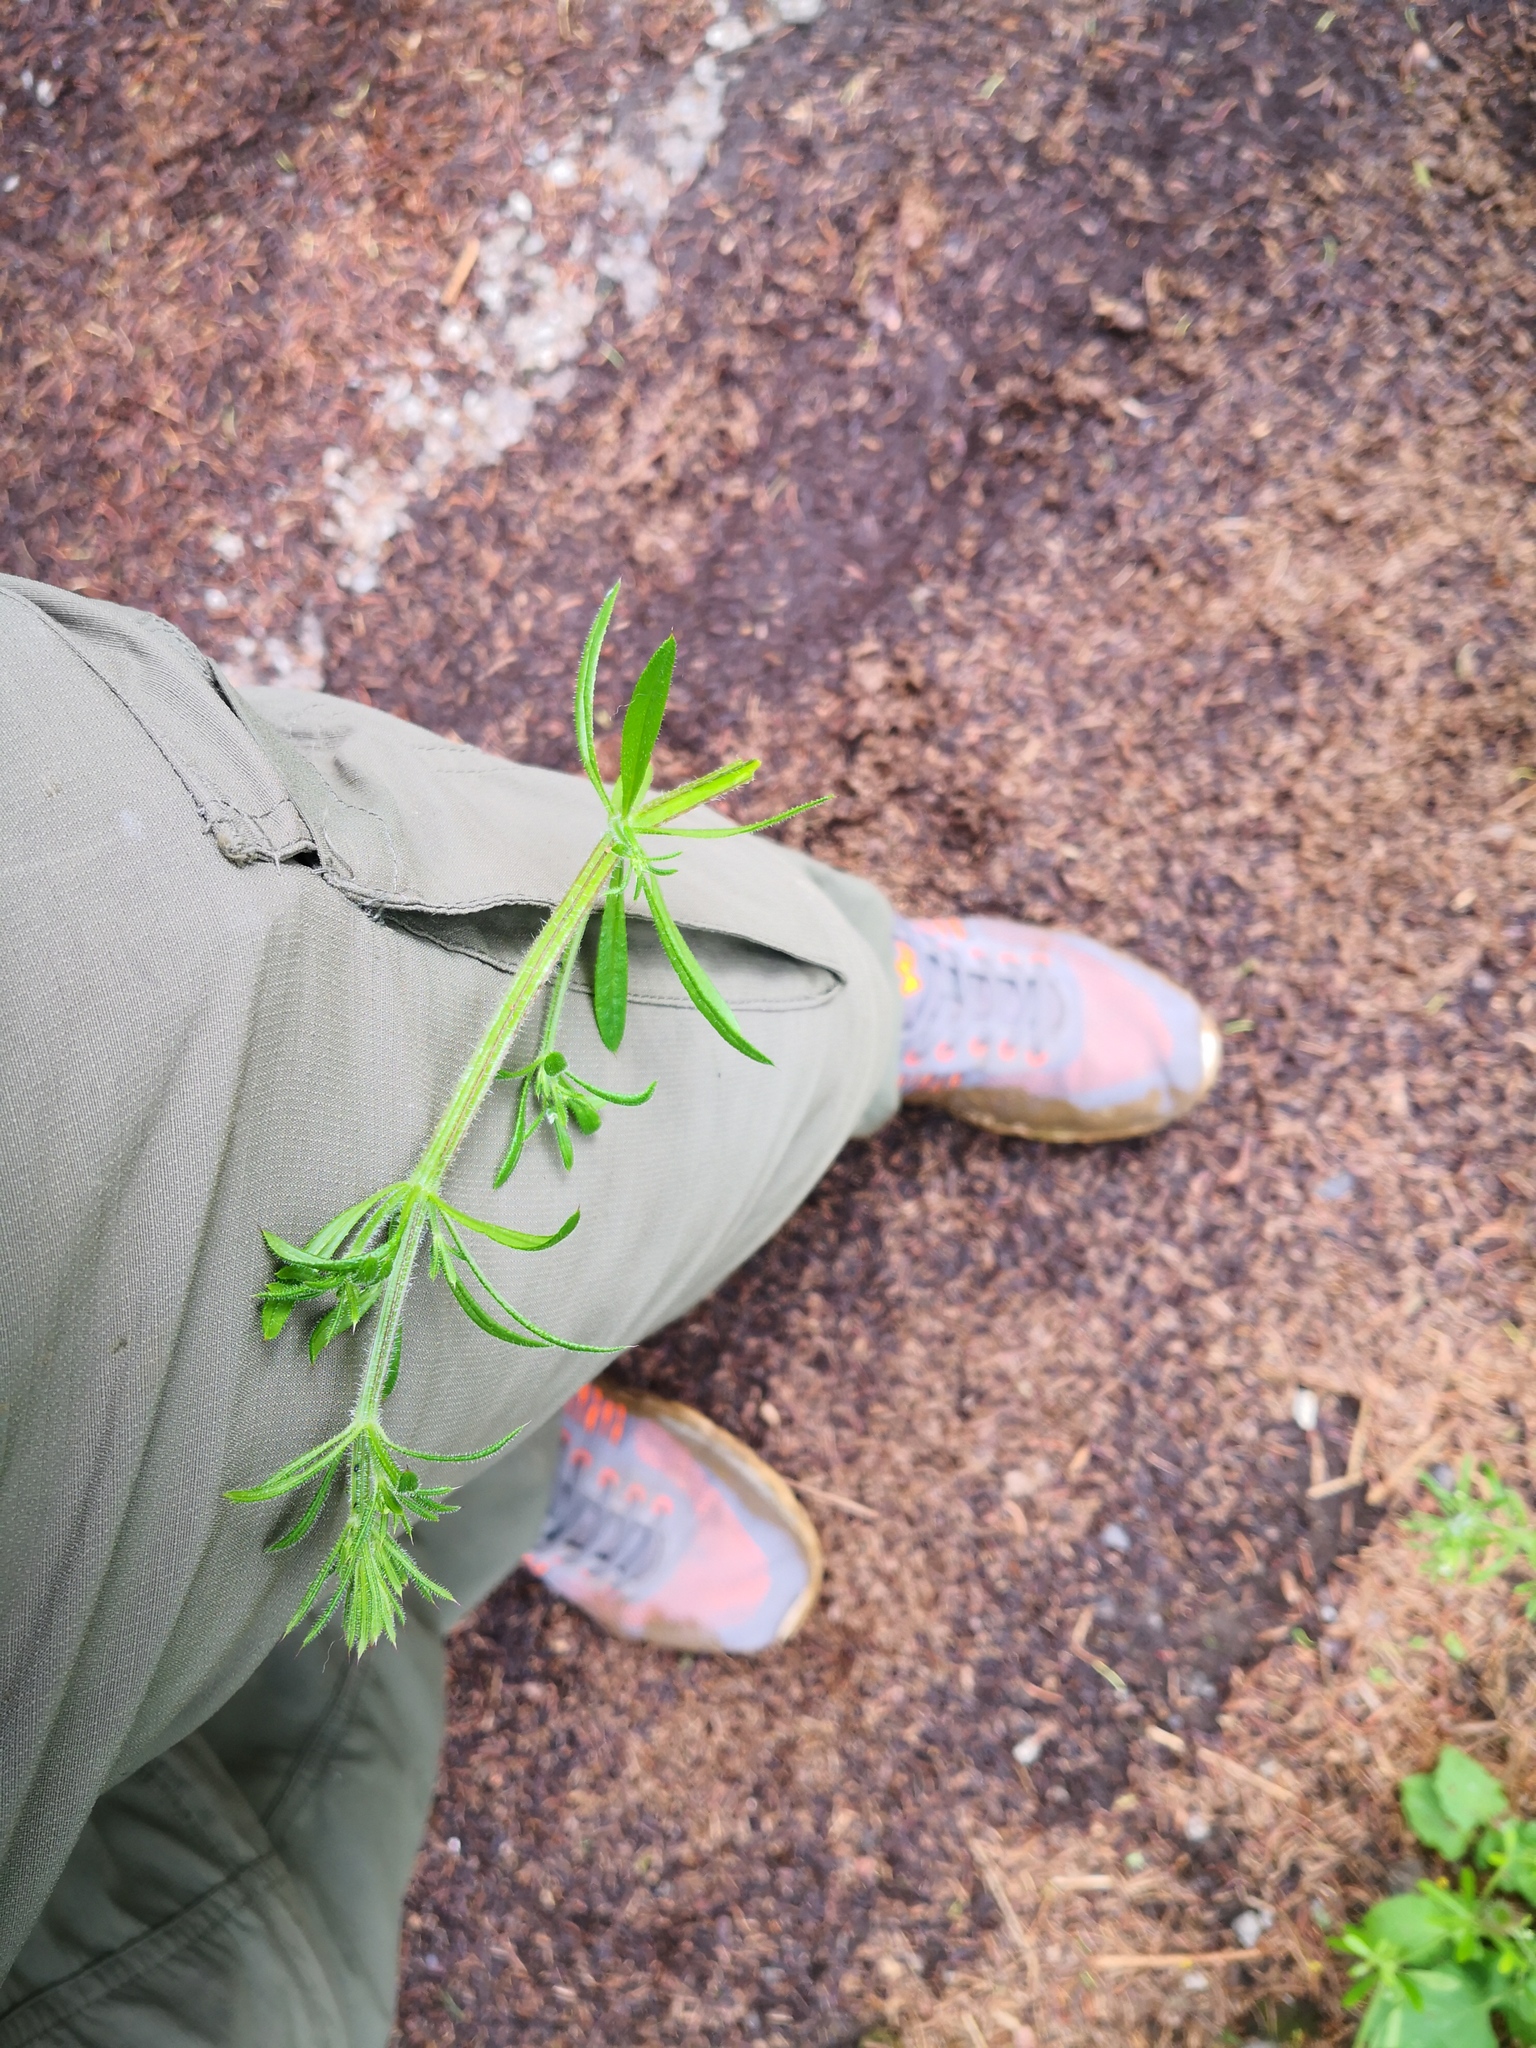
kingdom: Plantae
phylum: Tracheophyta
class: Magnoliopsida
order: Gentianales
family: Rubiaceae
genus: Galium
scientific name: Galium aparine
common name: Cleavers
